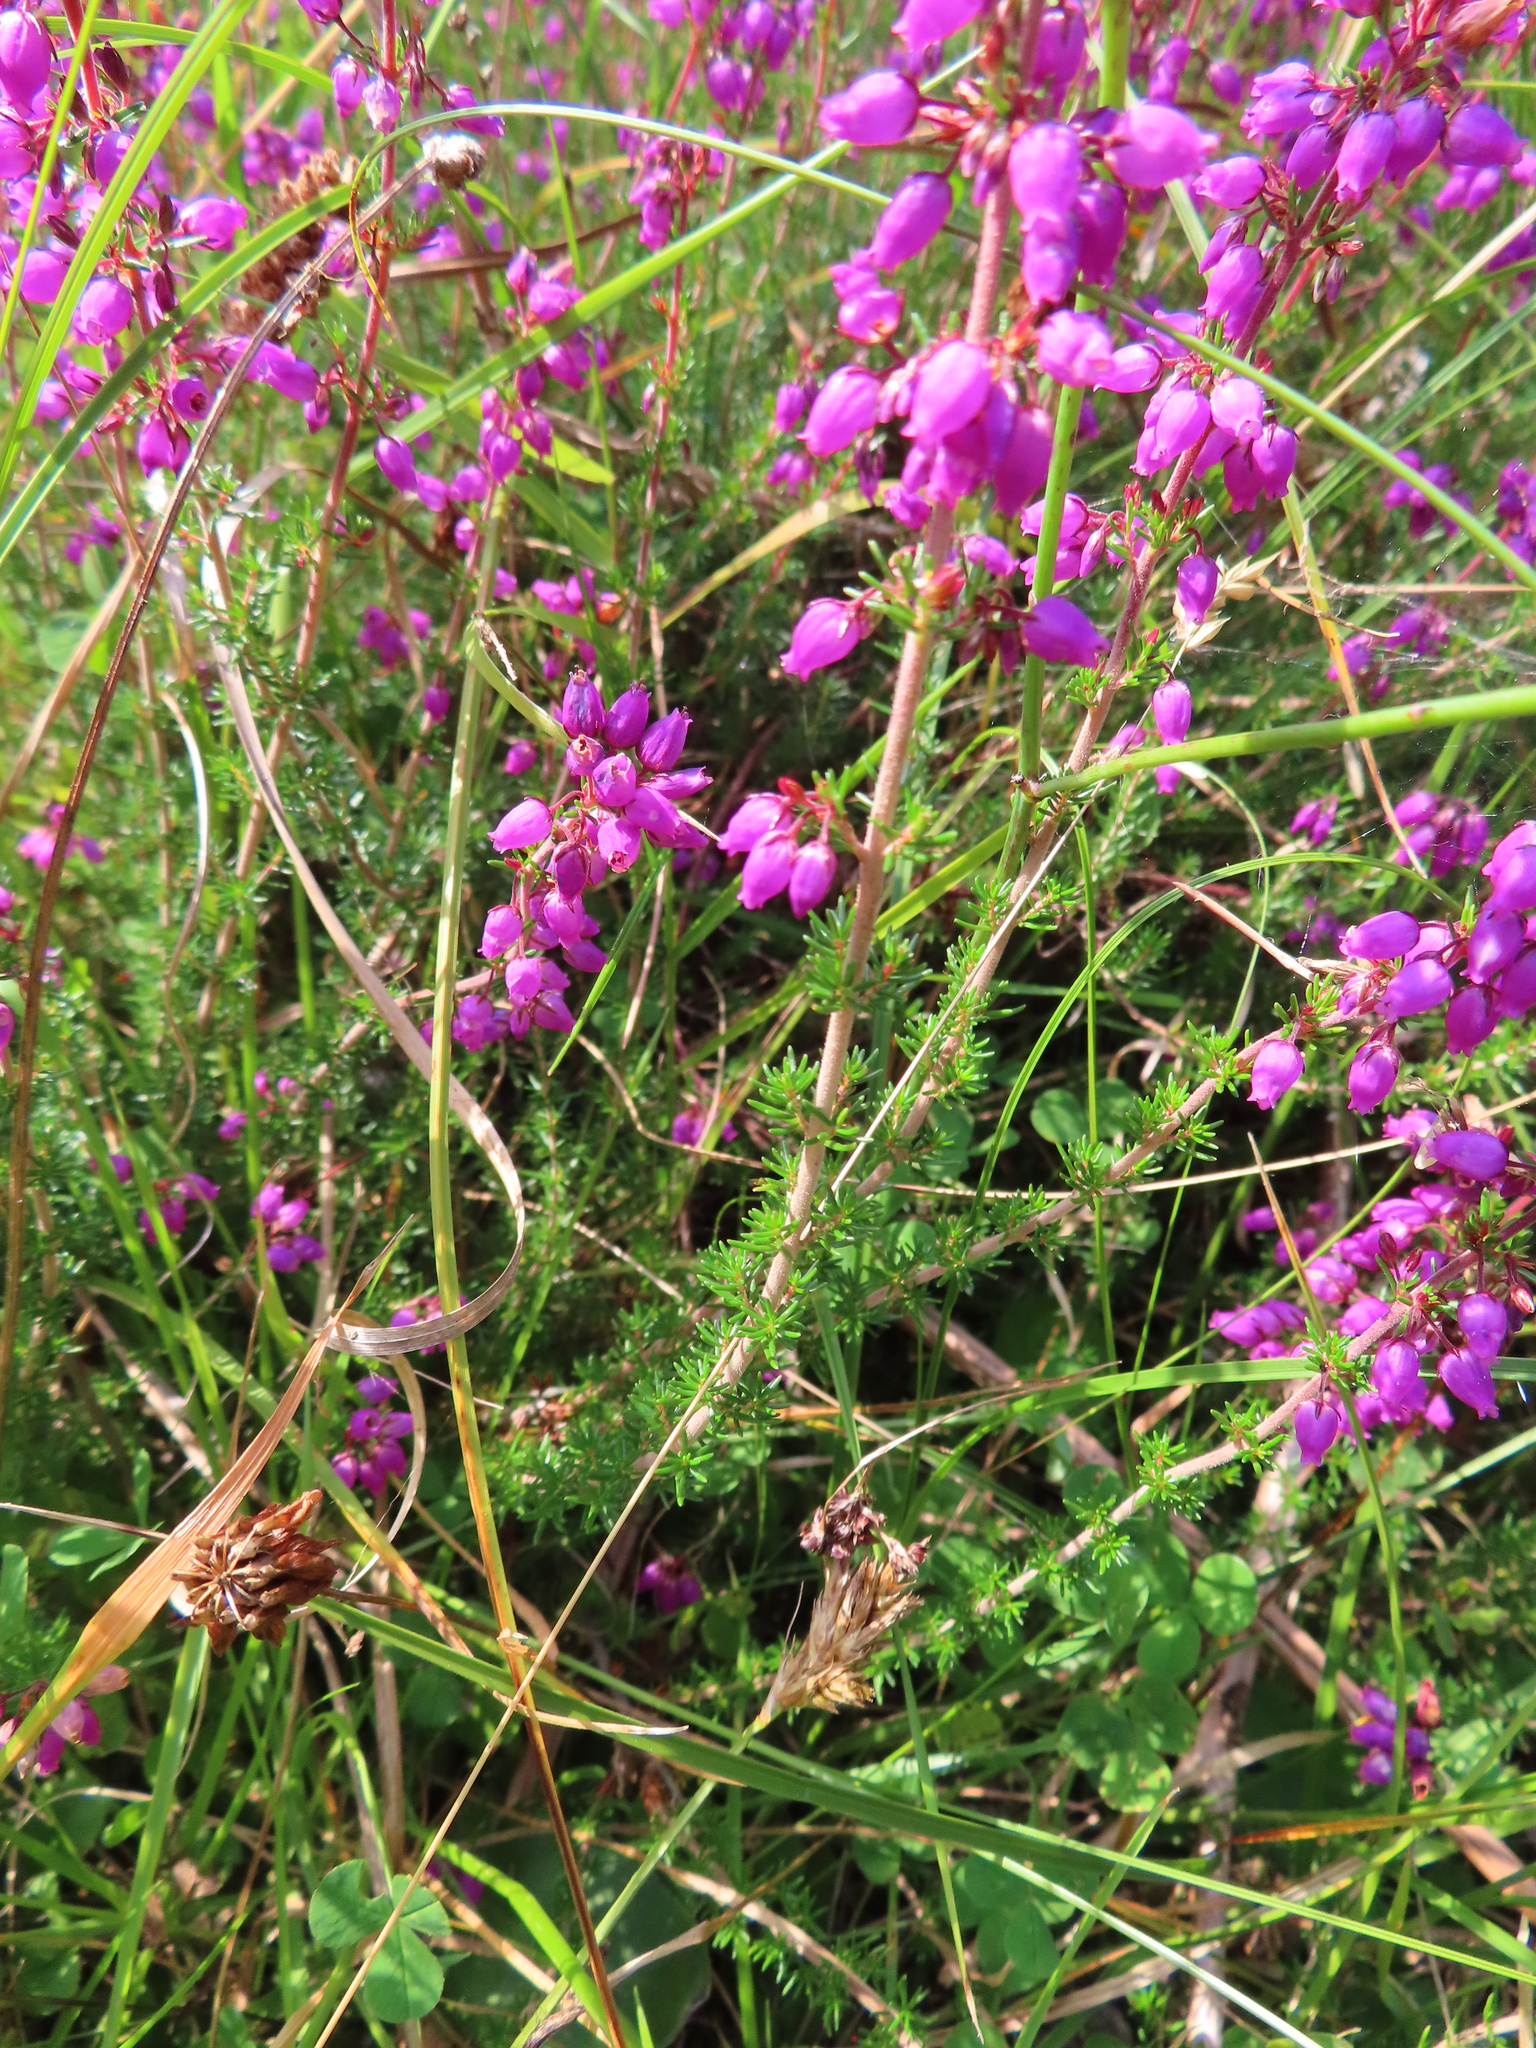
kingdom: Plantae
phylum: Tracheophyta
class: Magnoliopsida
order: Ericales
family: Ericaceae
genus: Erica
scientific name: Erica cinerea
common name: Bell heather
